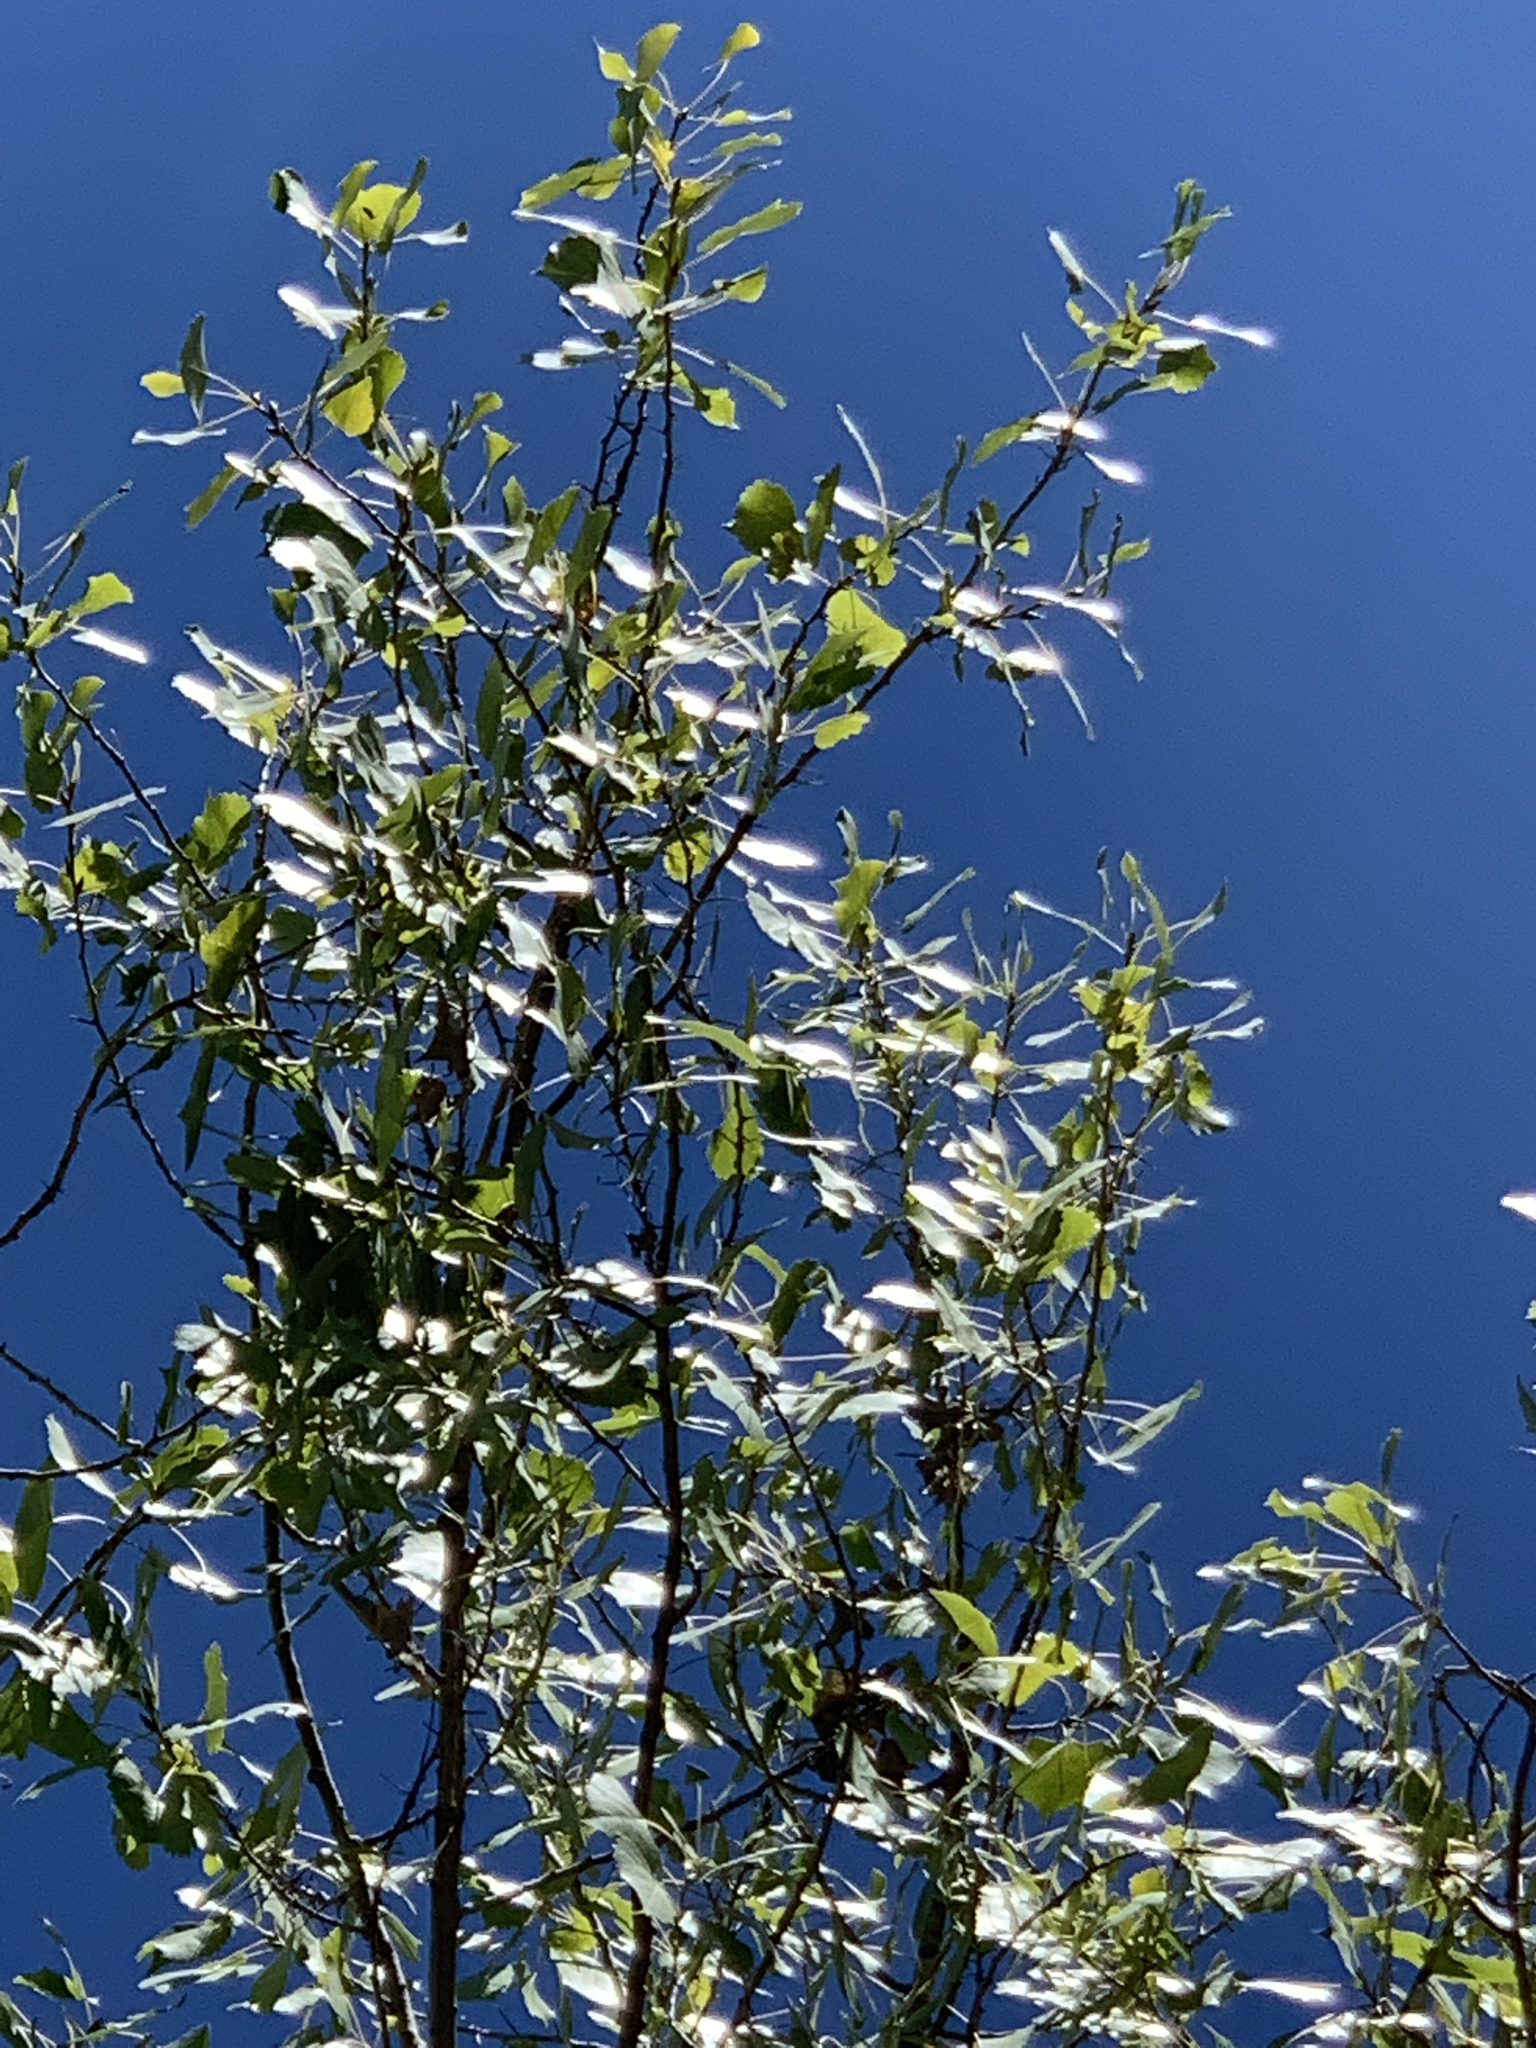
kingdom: Plantae
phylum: Tracheophyta
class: Magnoliopsida
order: Malpighiales
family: Salicaceae
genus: Populus
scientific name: Populus fremontii
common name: Fremont's cottonwood
